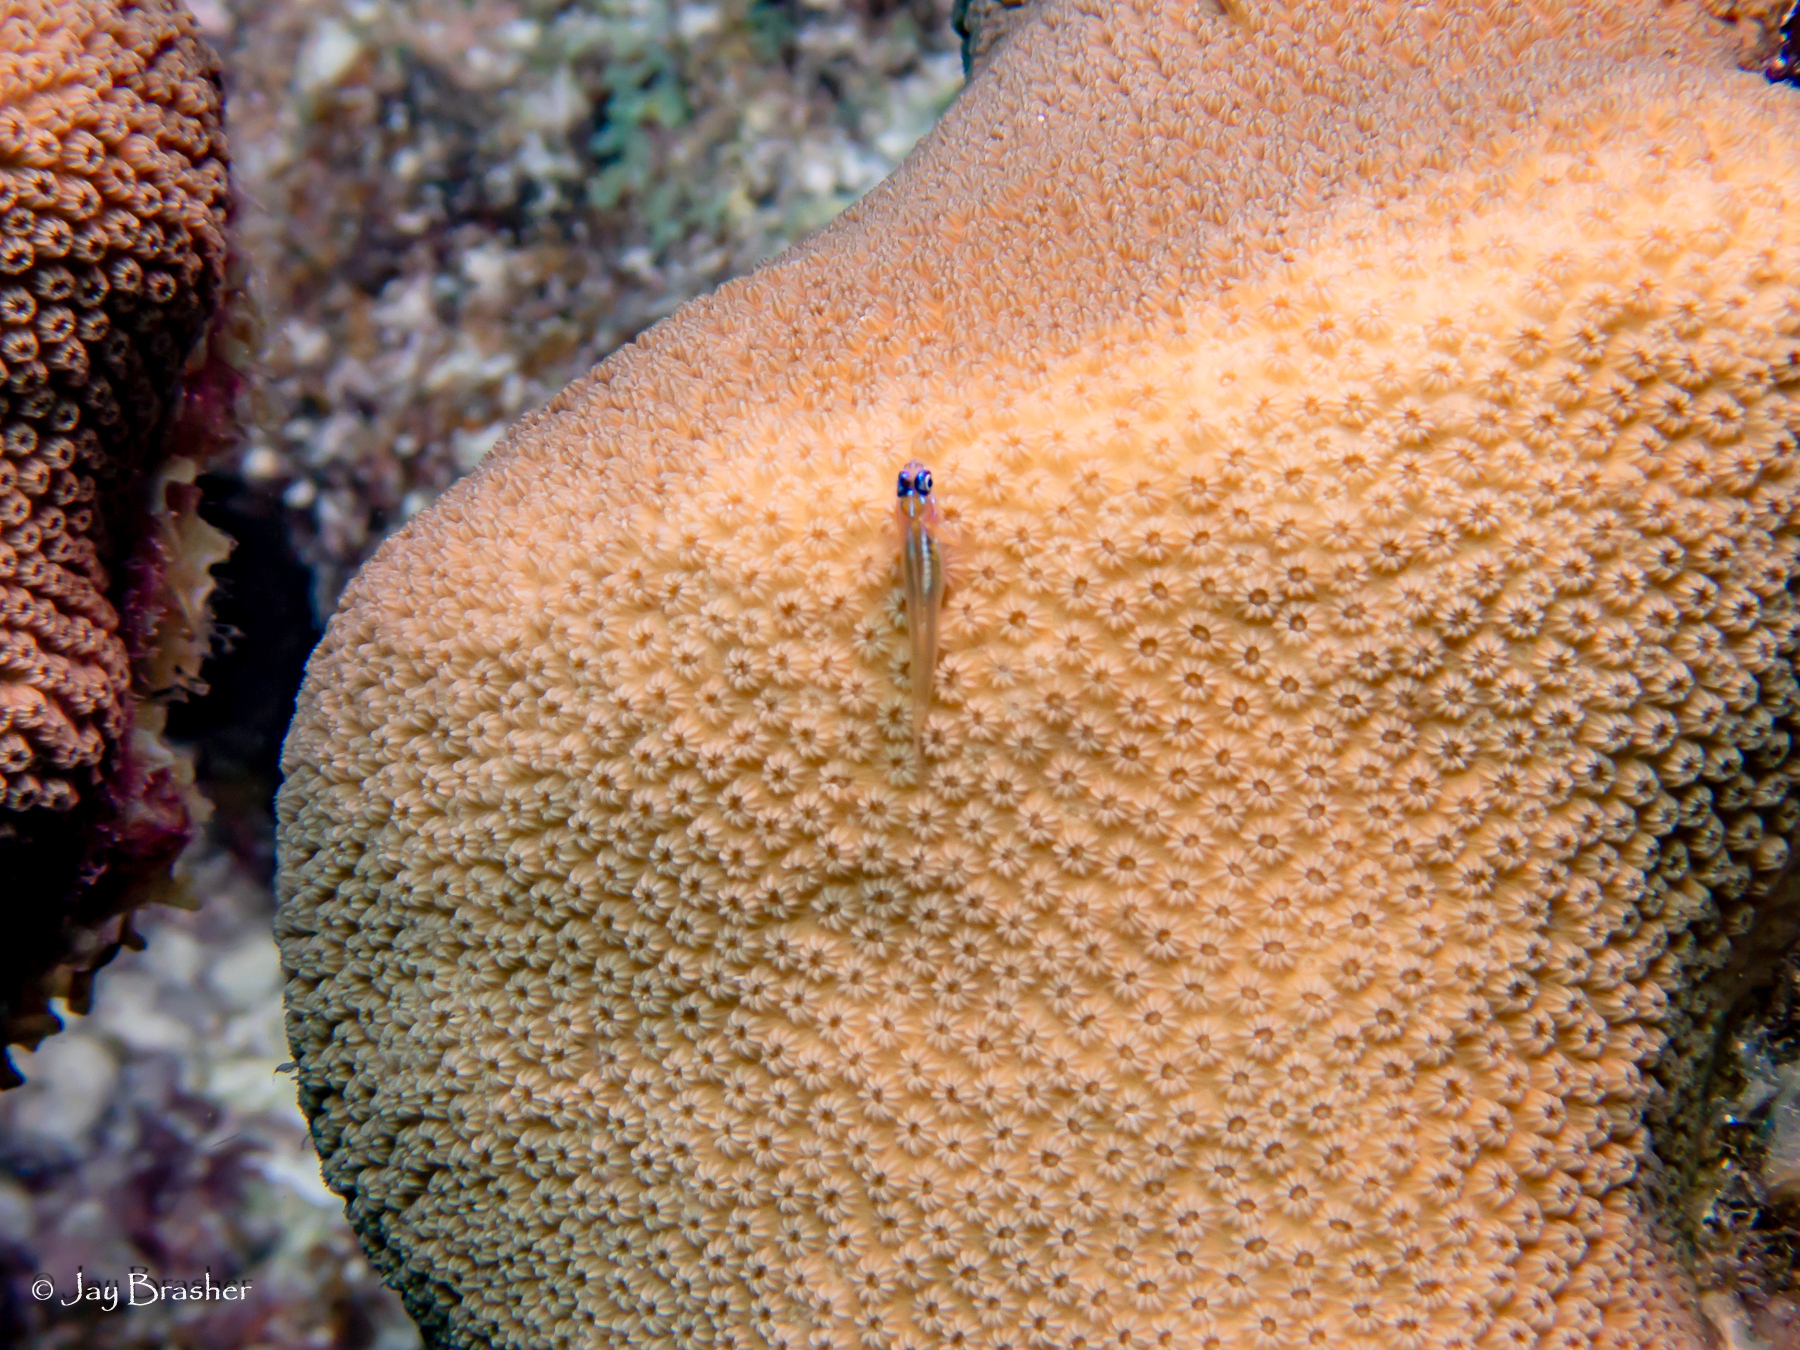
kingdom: Animalia
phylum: Chordata
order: Perciformes
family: Gobiidae
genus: Coryphopterus
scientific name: Coryphopterus lipernes
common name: Peppermint goby
